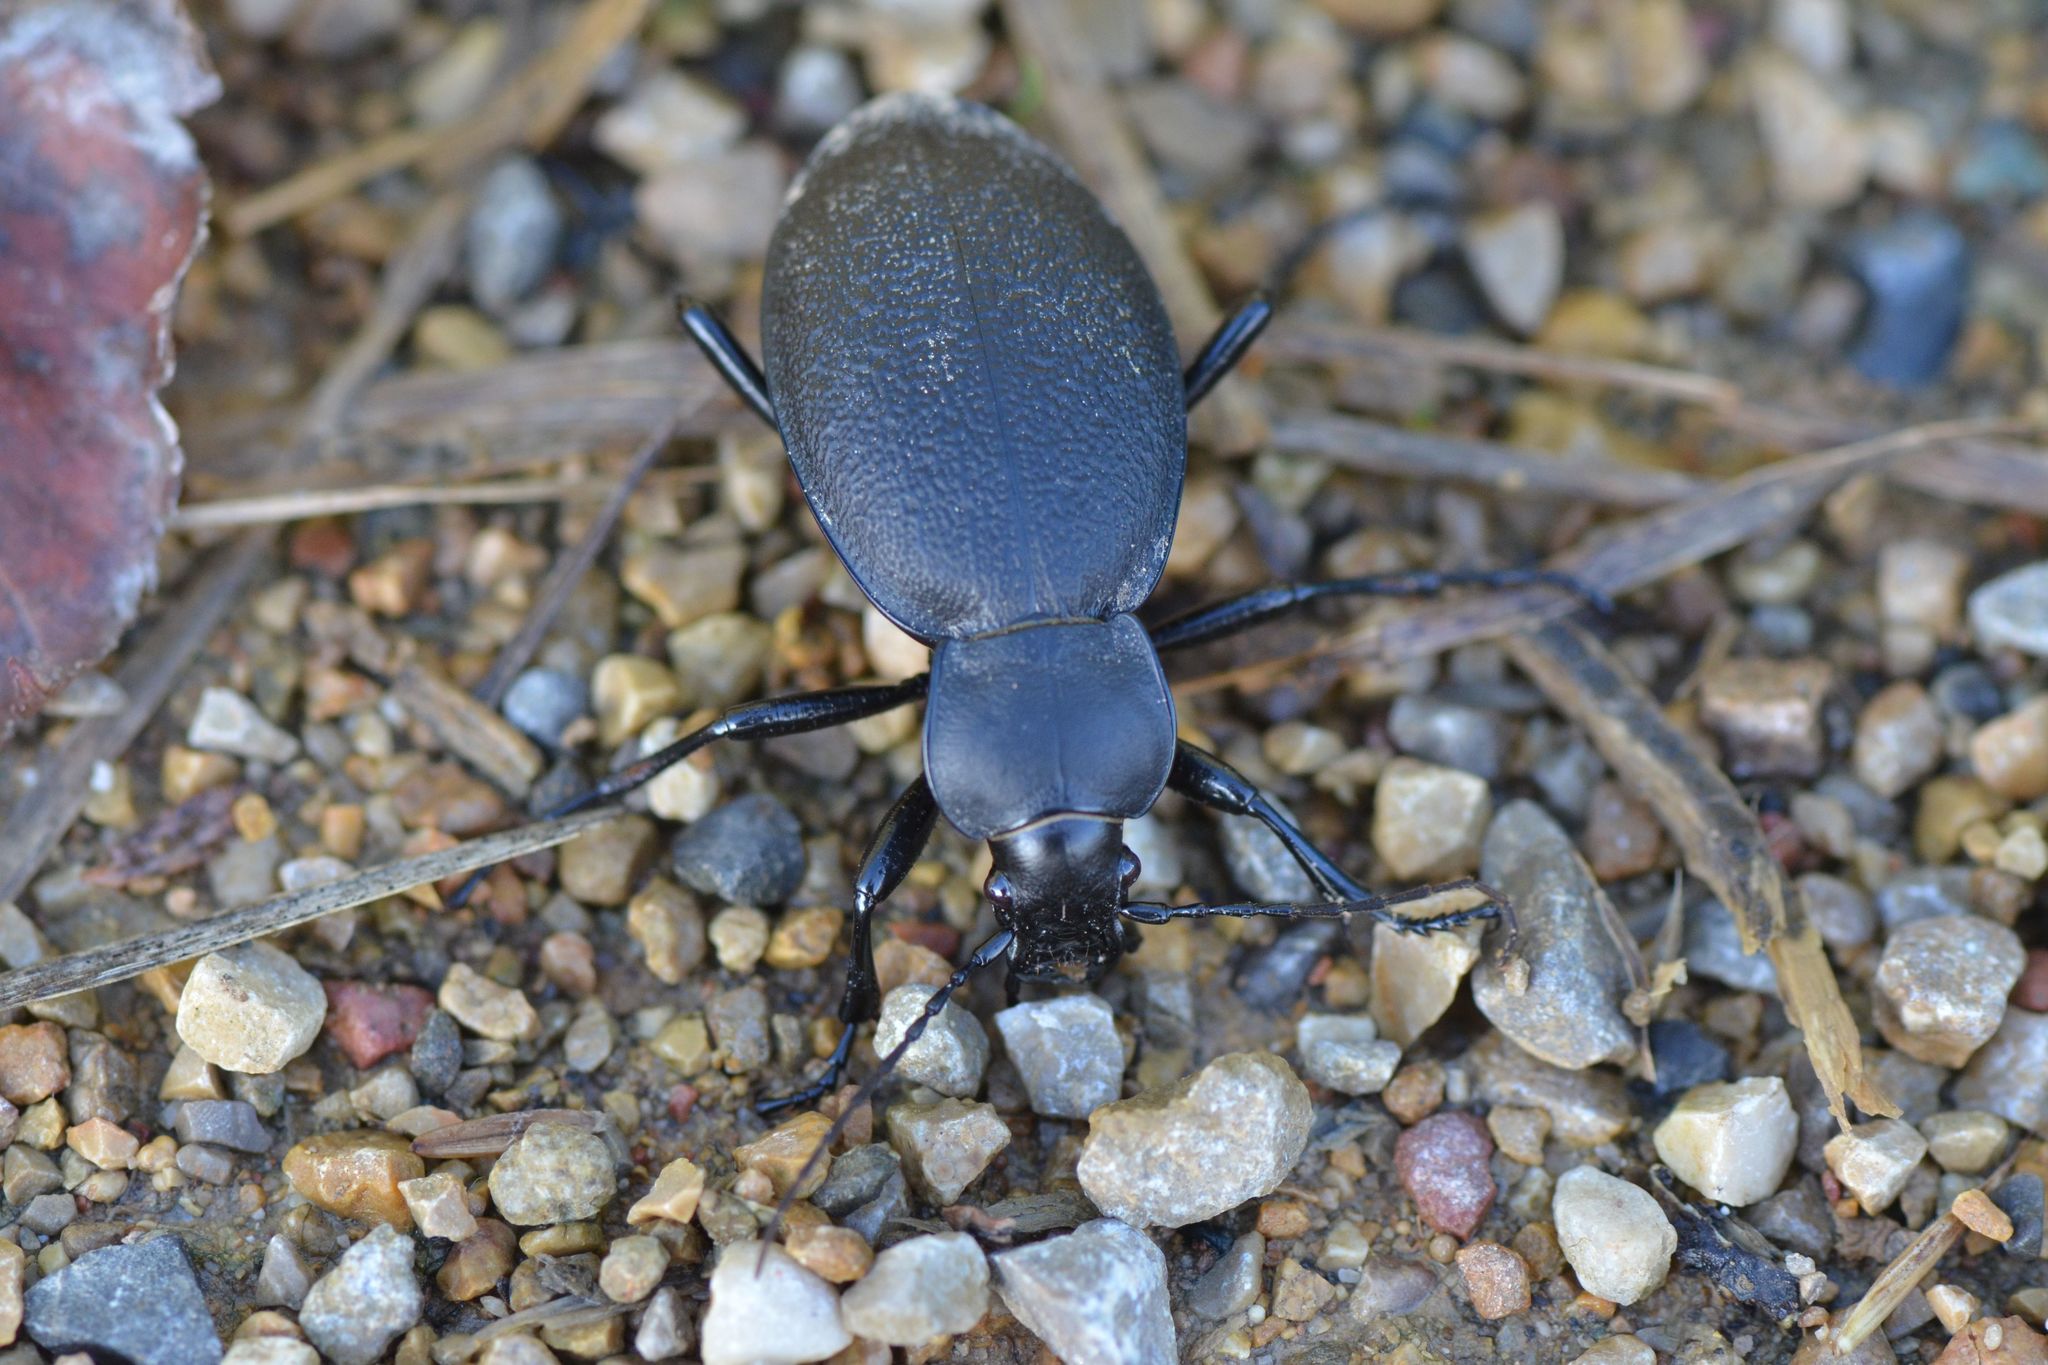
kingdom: Animalia
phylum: Arthropoda
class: Insecta
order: Coleoptera
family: Carabidae
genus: Carabus
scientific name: Carabus coriaceus
